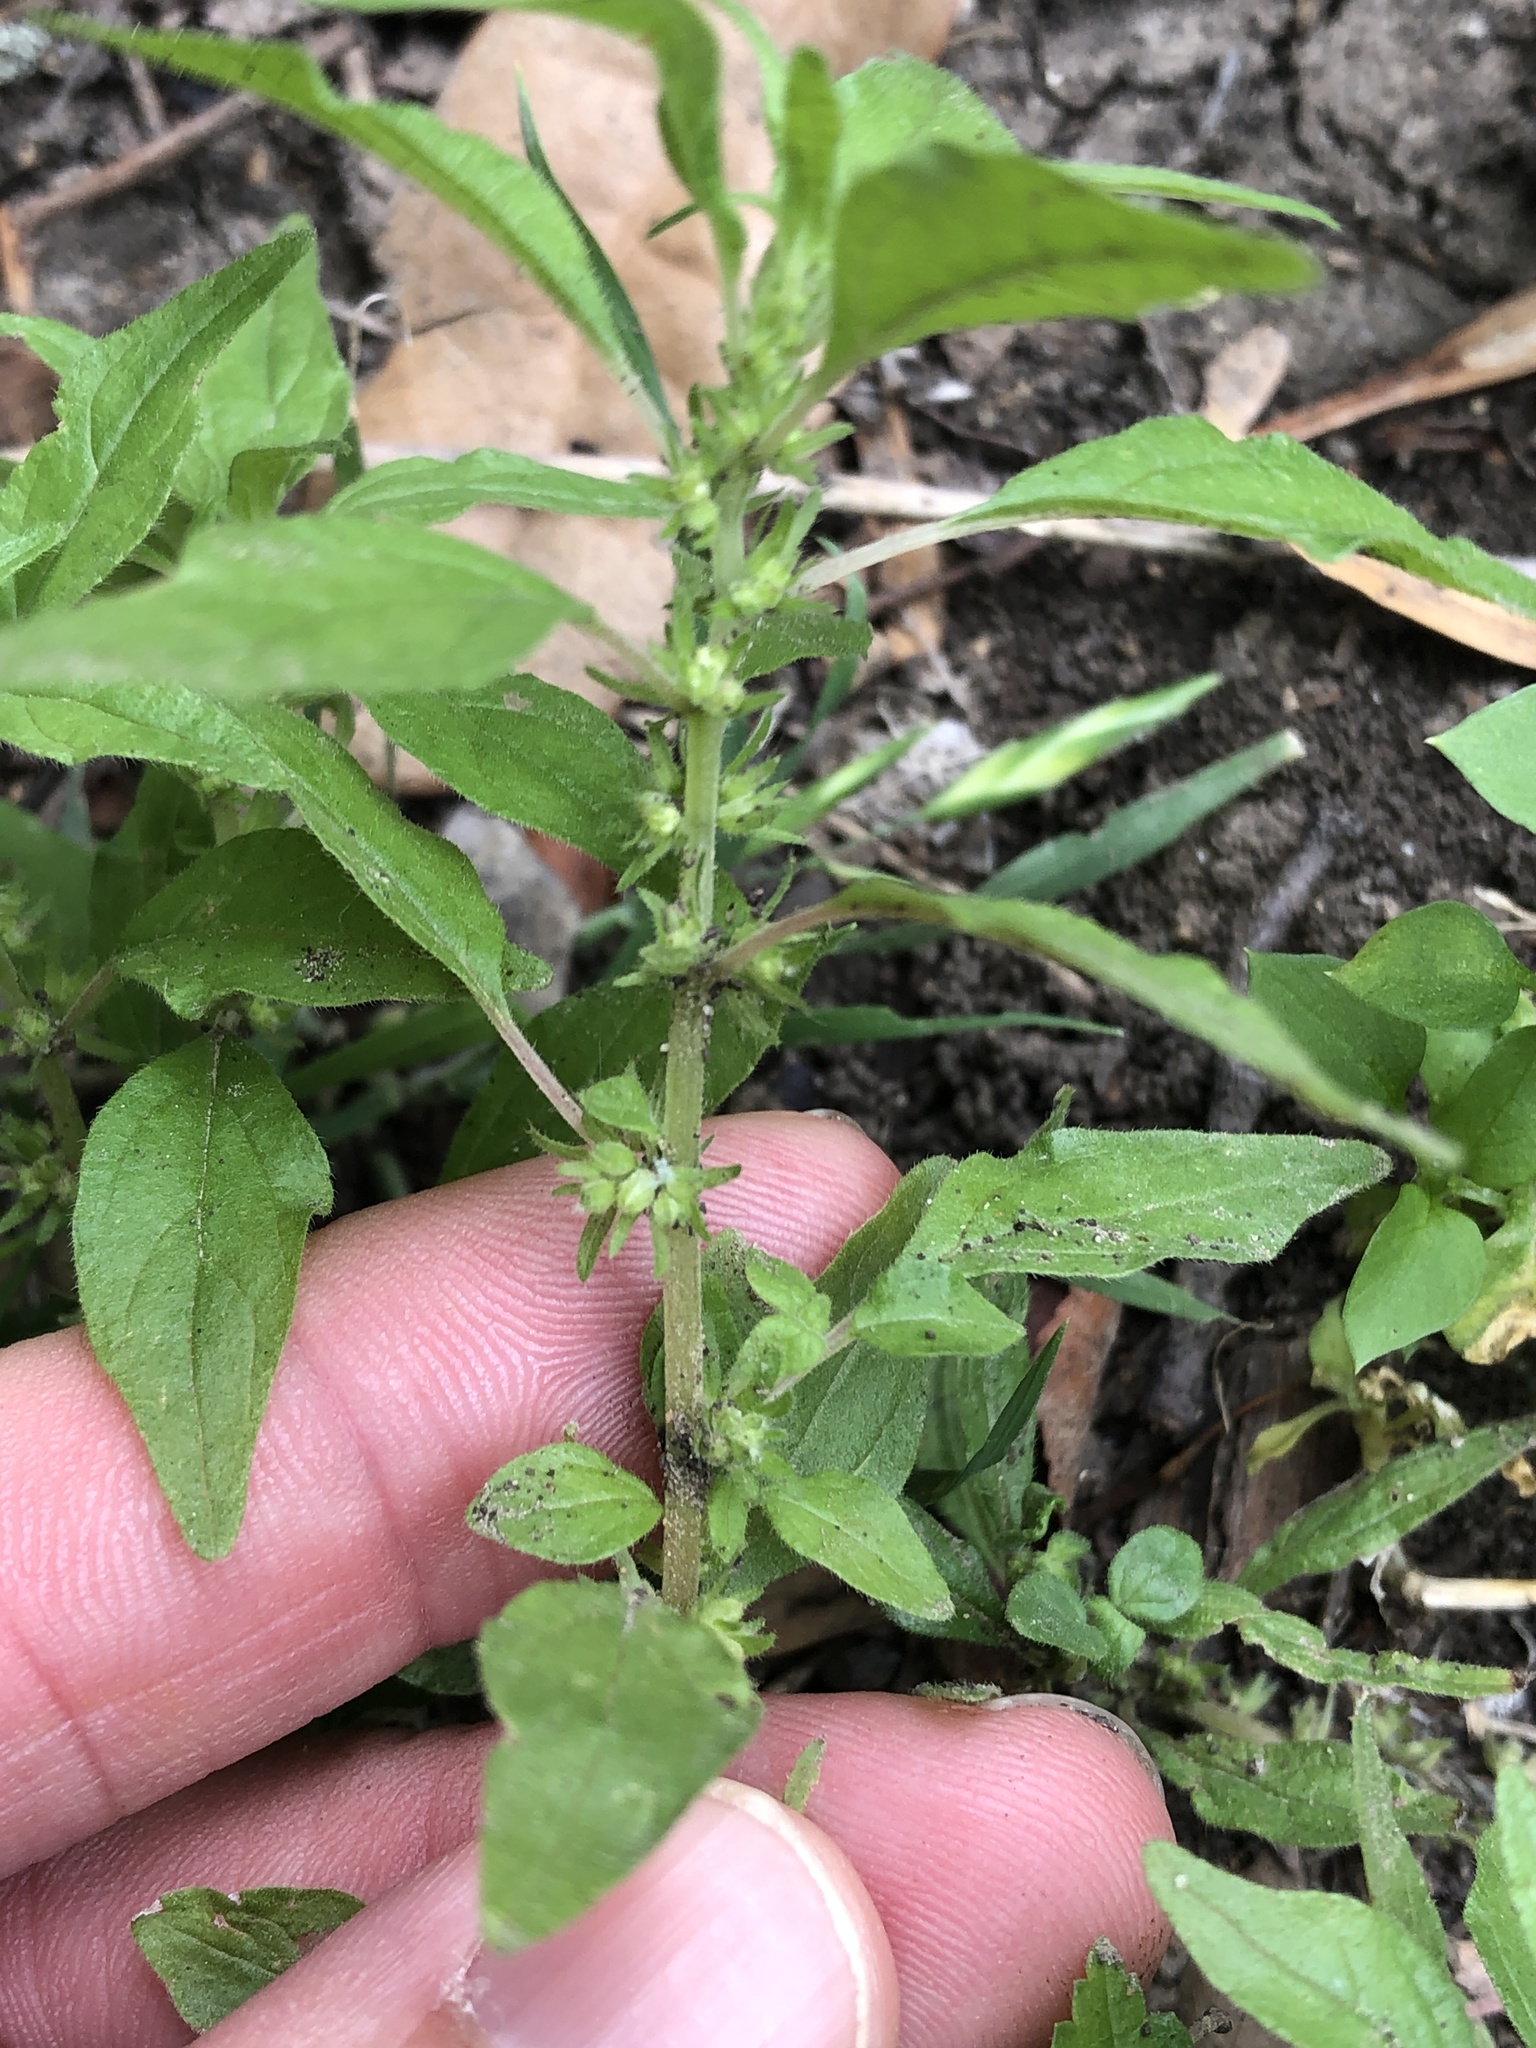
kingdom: Plantae
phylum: Tracheophyta
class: Magnoliopsida
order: Rosales
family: Urticaceae
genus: Parietaria
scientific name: Parietaria pensylvanica
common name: Pennsylvania pellitory
